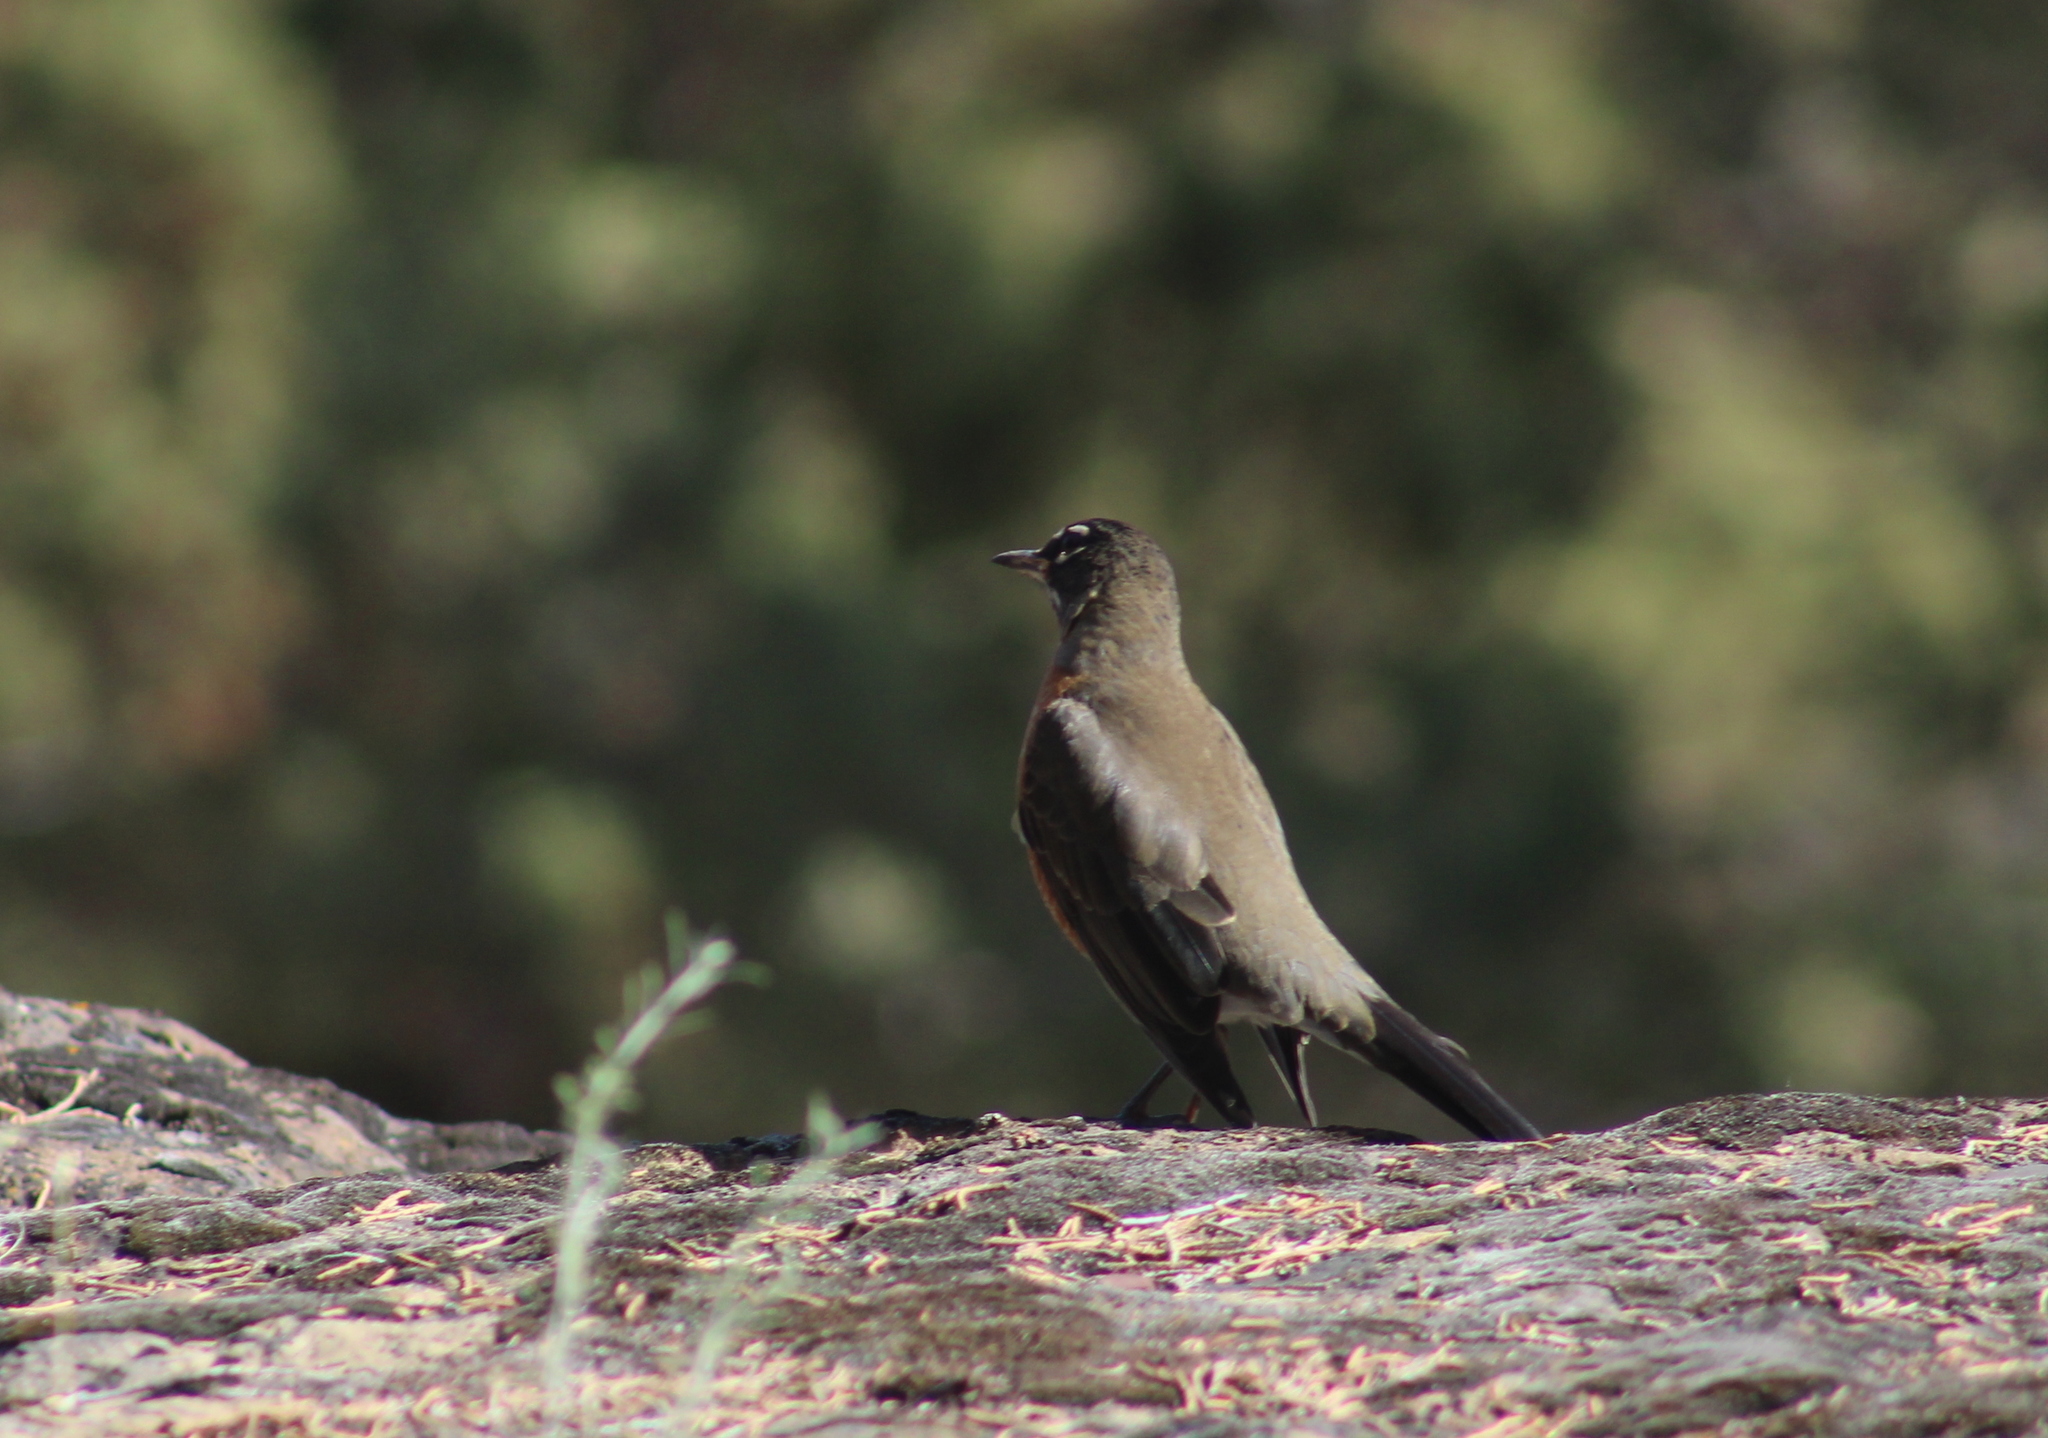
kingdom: Animalia
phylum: Chordata
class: Aves
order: Passeriformes
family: Turdidae
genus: Turdus
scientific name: Turdus migratorius
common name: American robin
